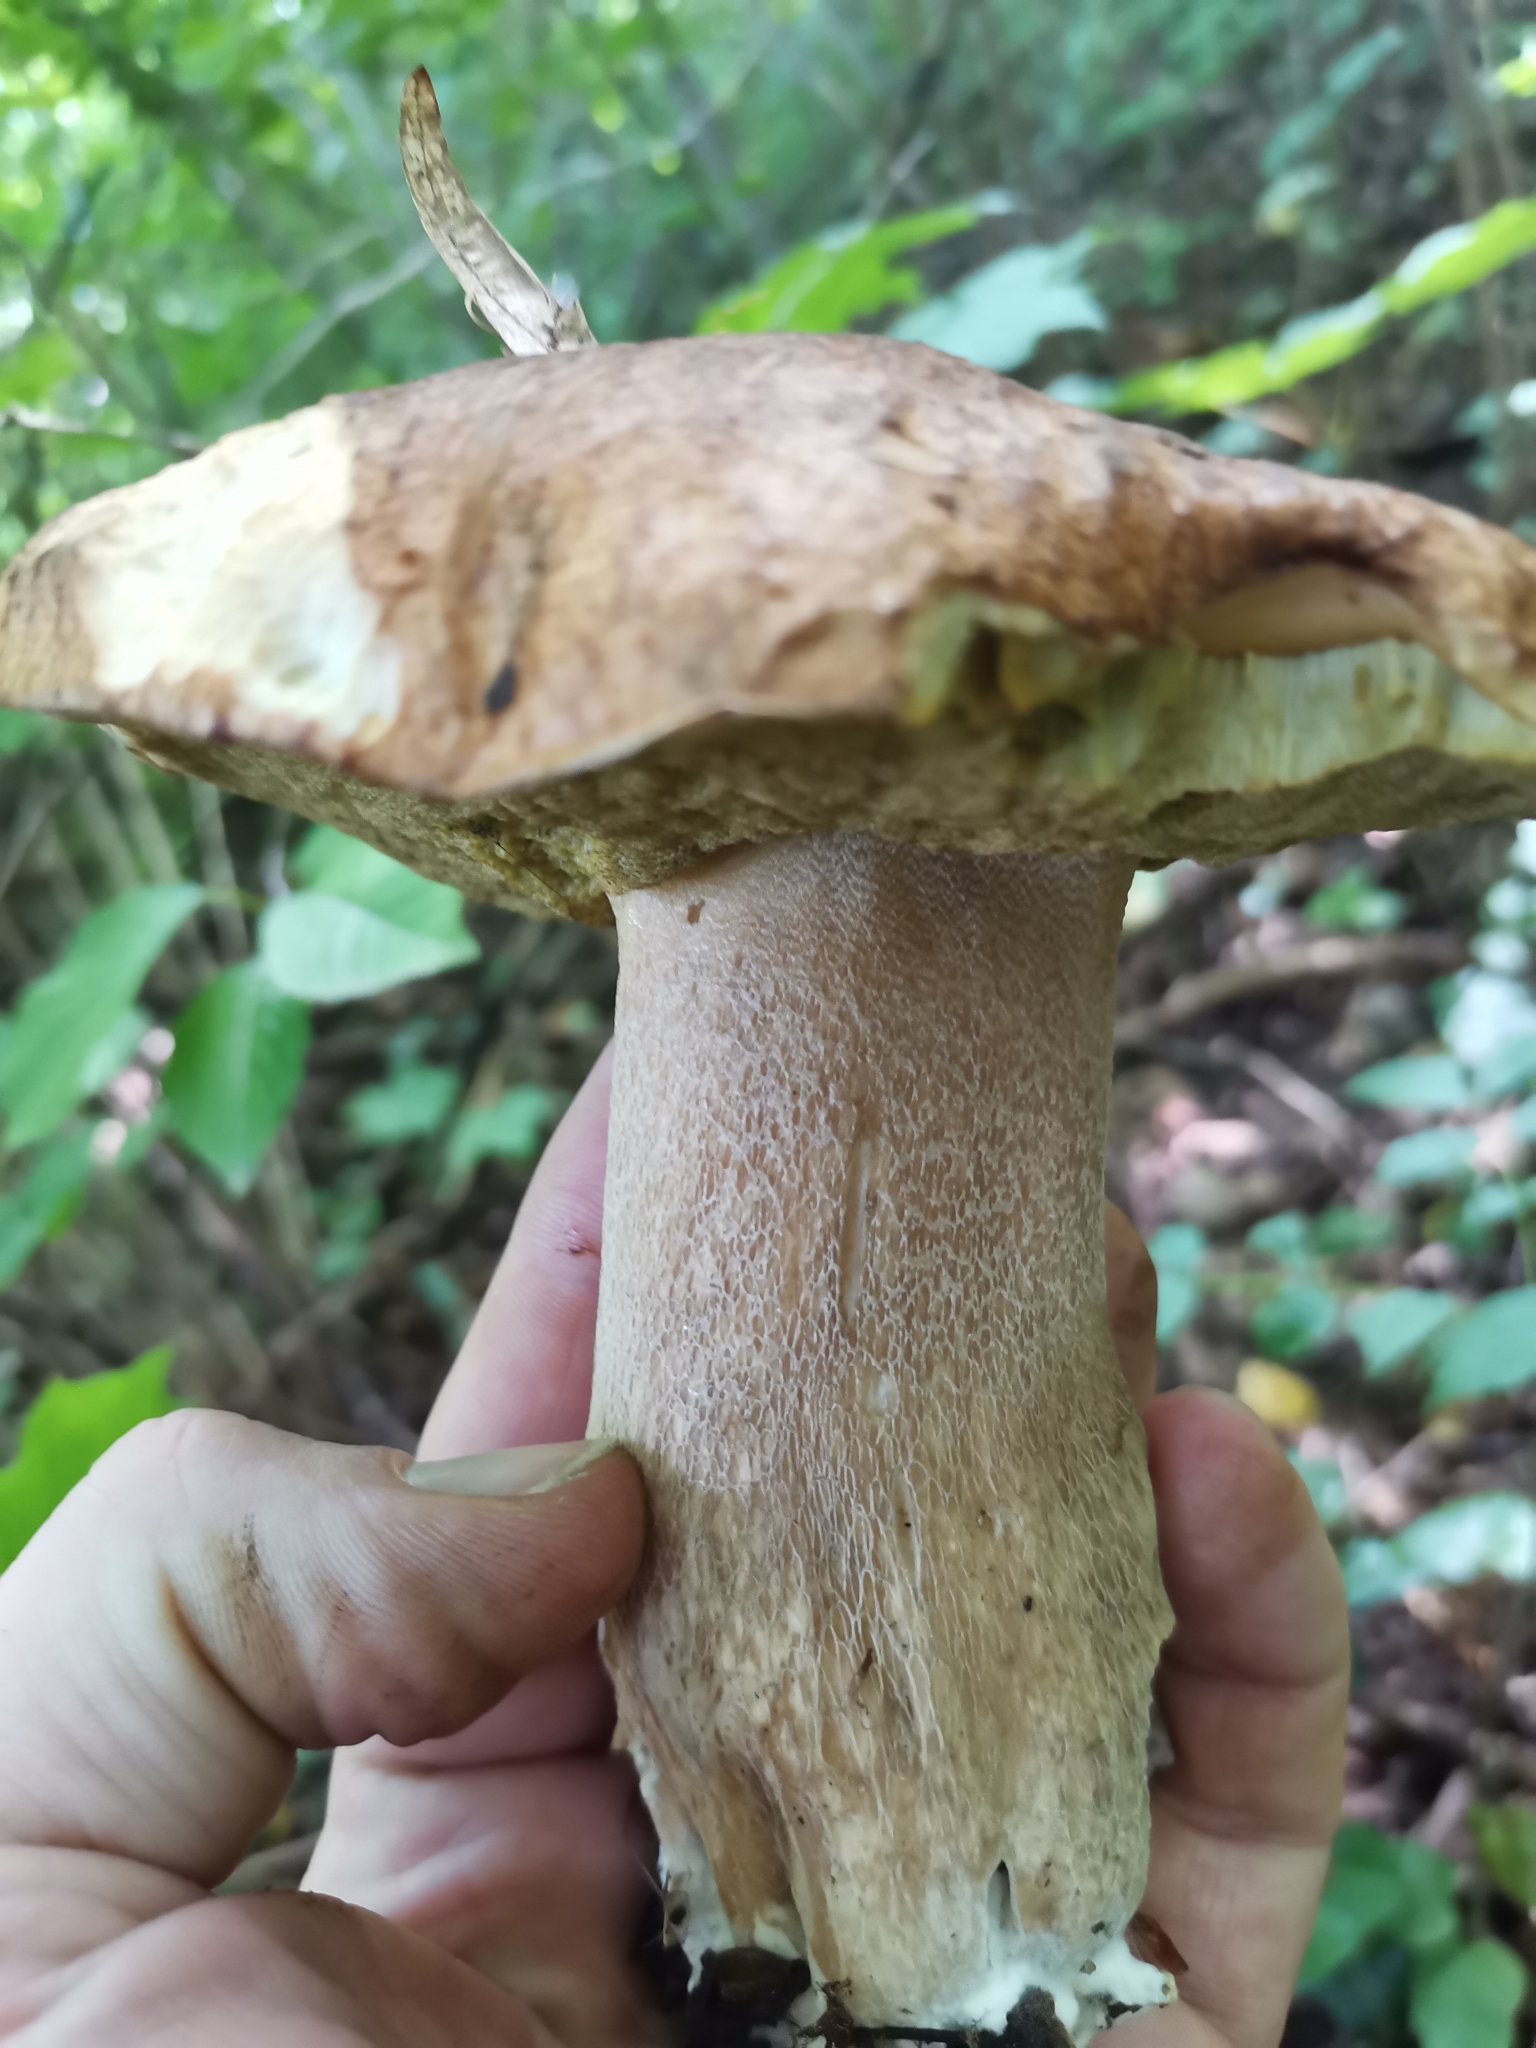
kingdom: Fungi
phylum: Basidiomycota
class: Agaricomycetes
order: Boletales
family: Boletaceae
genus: Boletus
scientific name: Boletus edulis
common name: Cep
